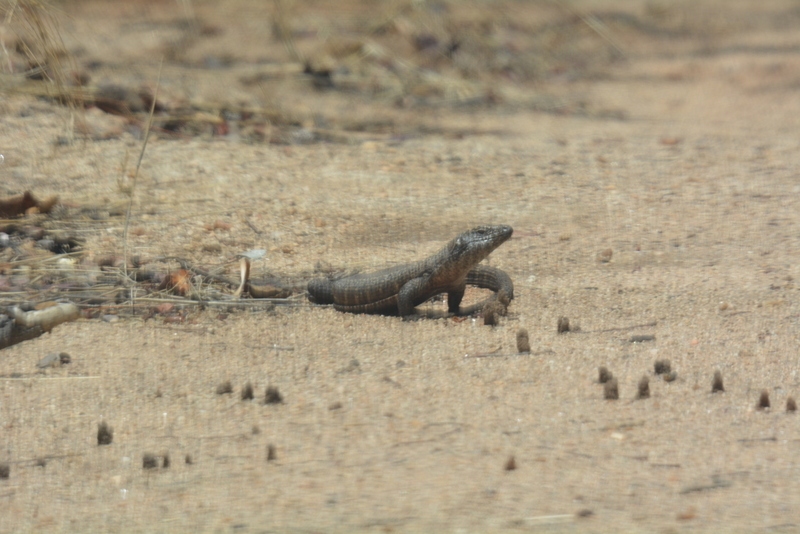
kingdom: Animalia
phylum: Chordata
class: Squamata
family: Gerrhosauridae
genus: Matobosaurus
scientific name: Matobosaurus validus
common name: Common giant plated lizard
